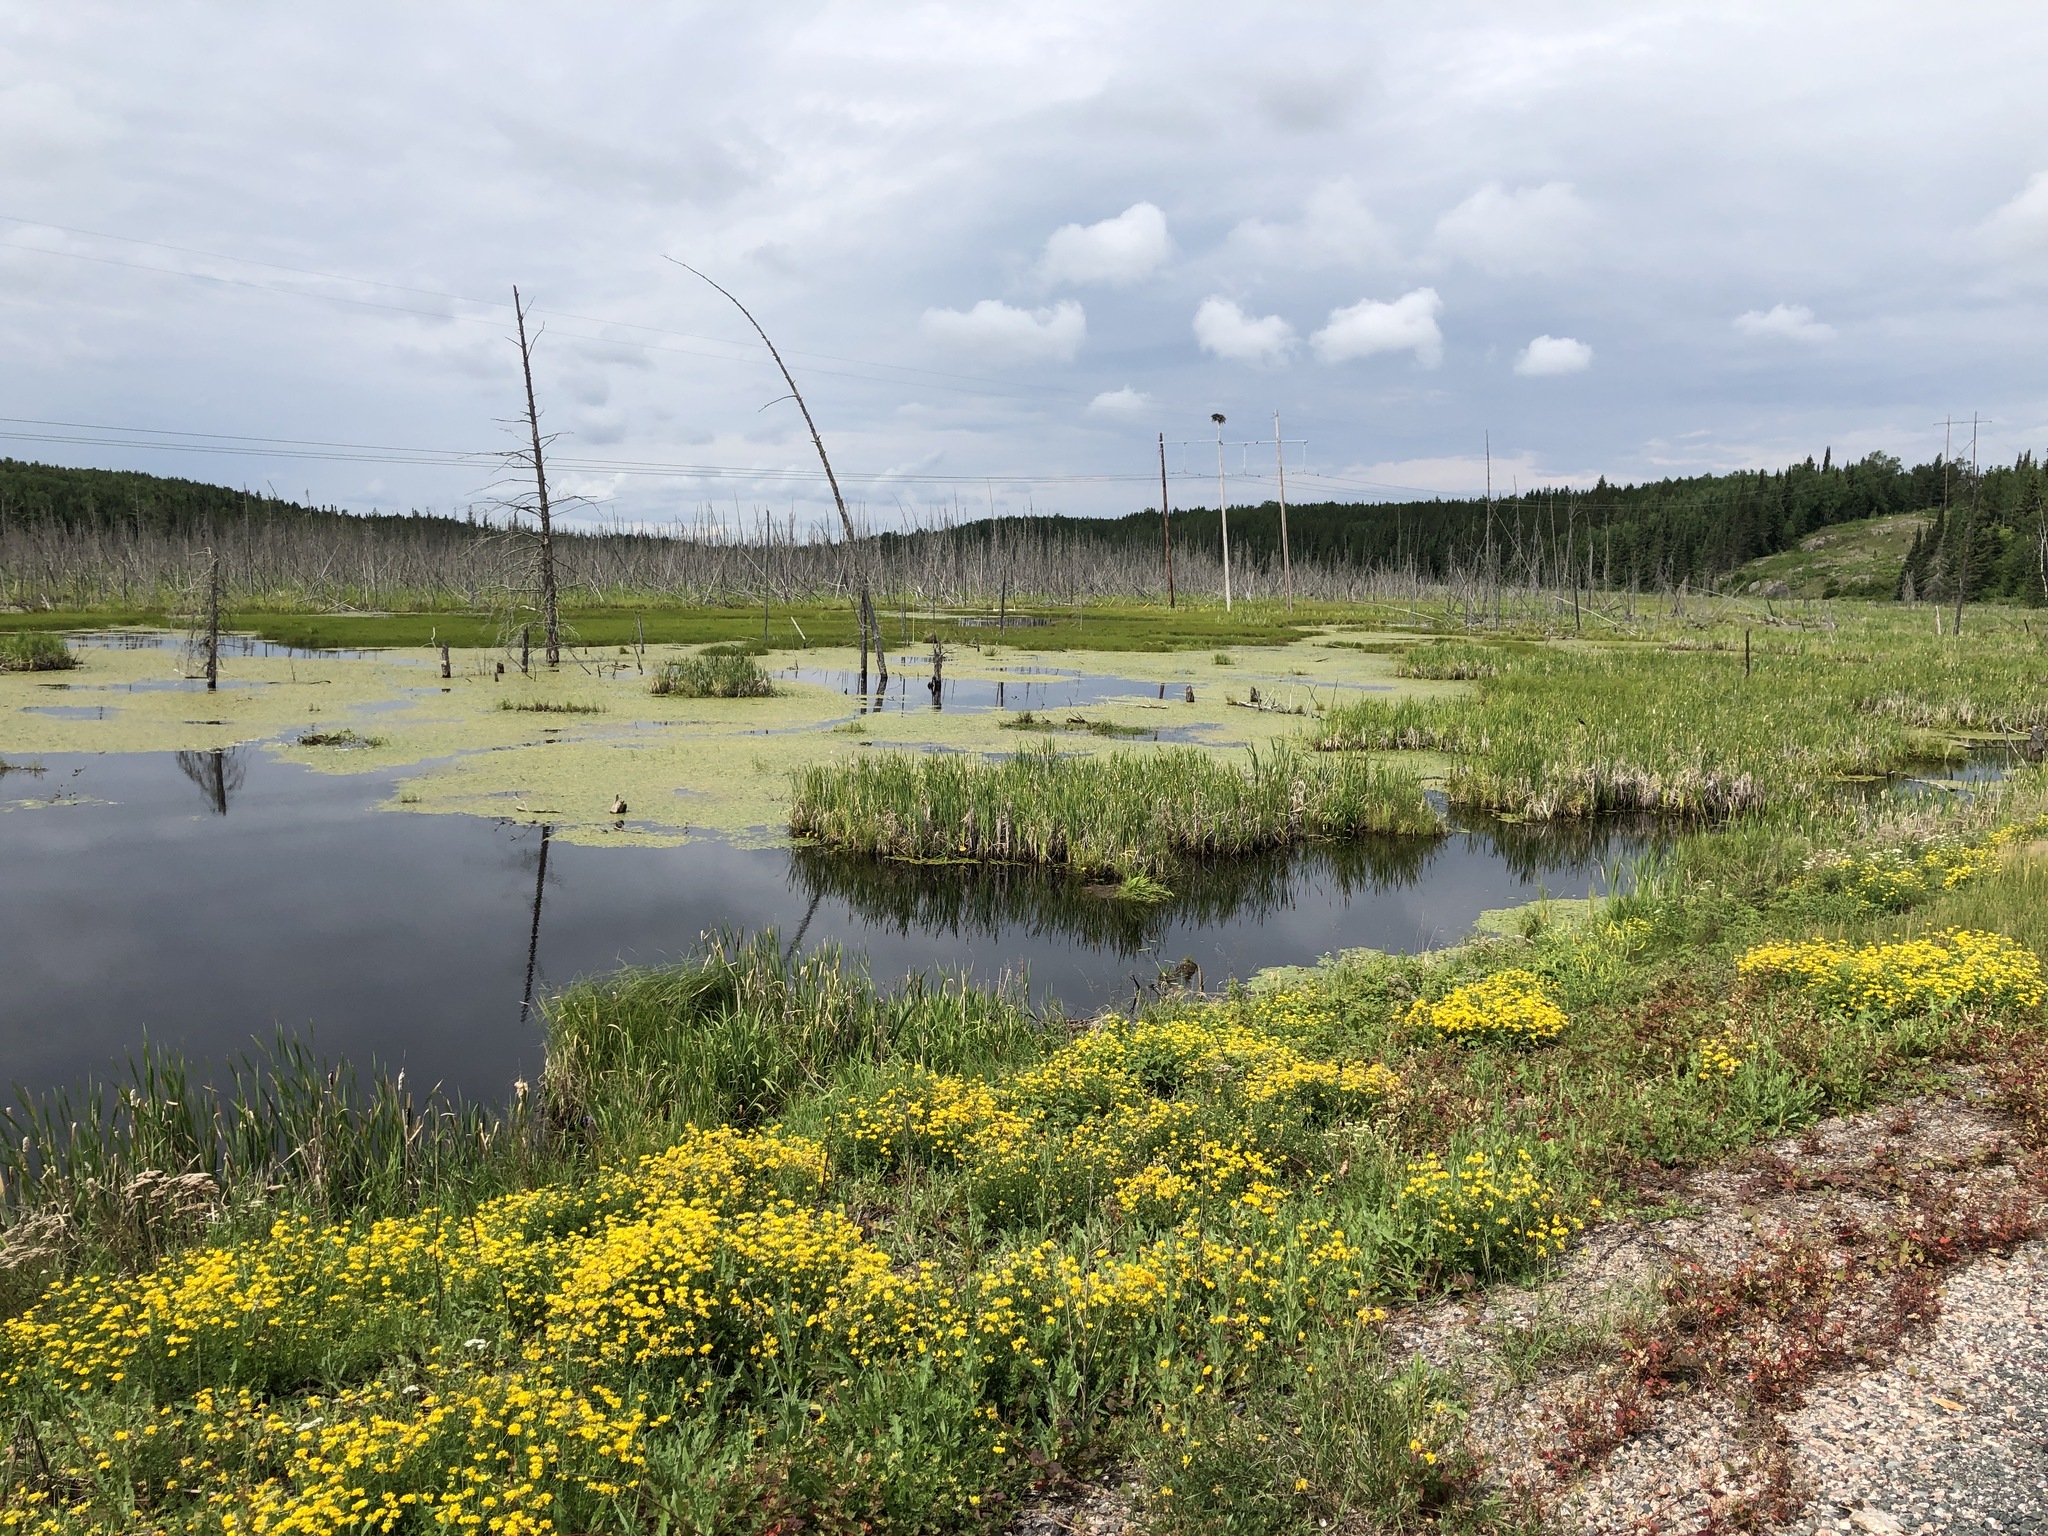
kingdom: Animalia
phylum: Chordata
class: Aves
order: Accipitriformes
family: Pandionidae
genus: Pandion
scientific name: Pandion haliaetus
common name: Osprey
